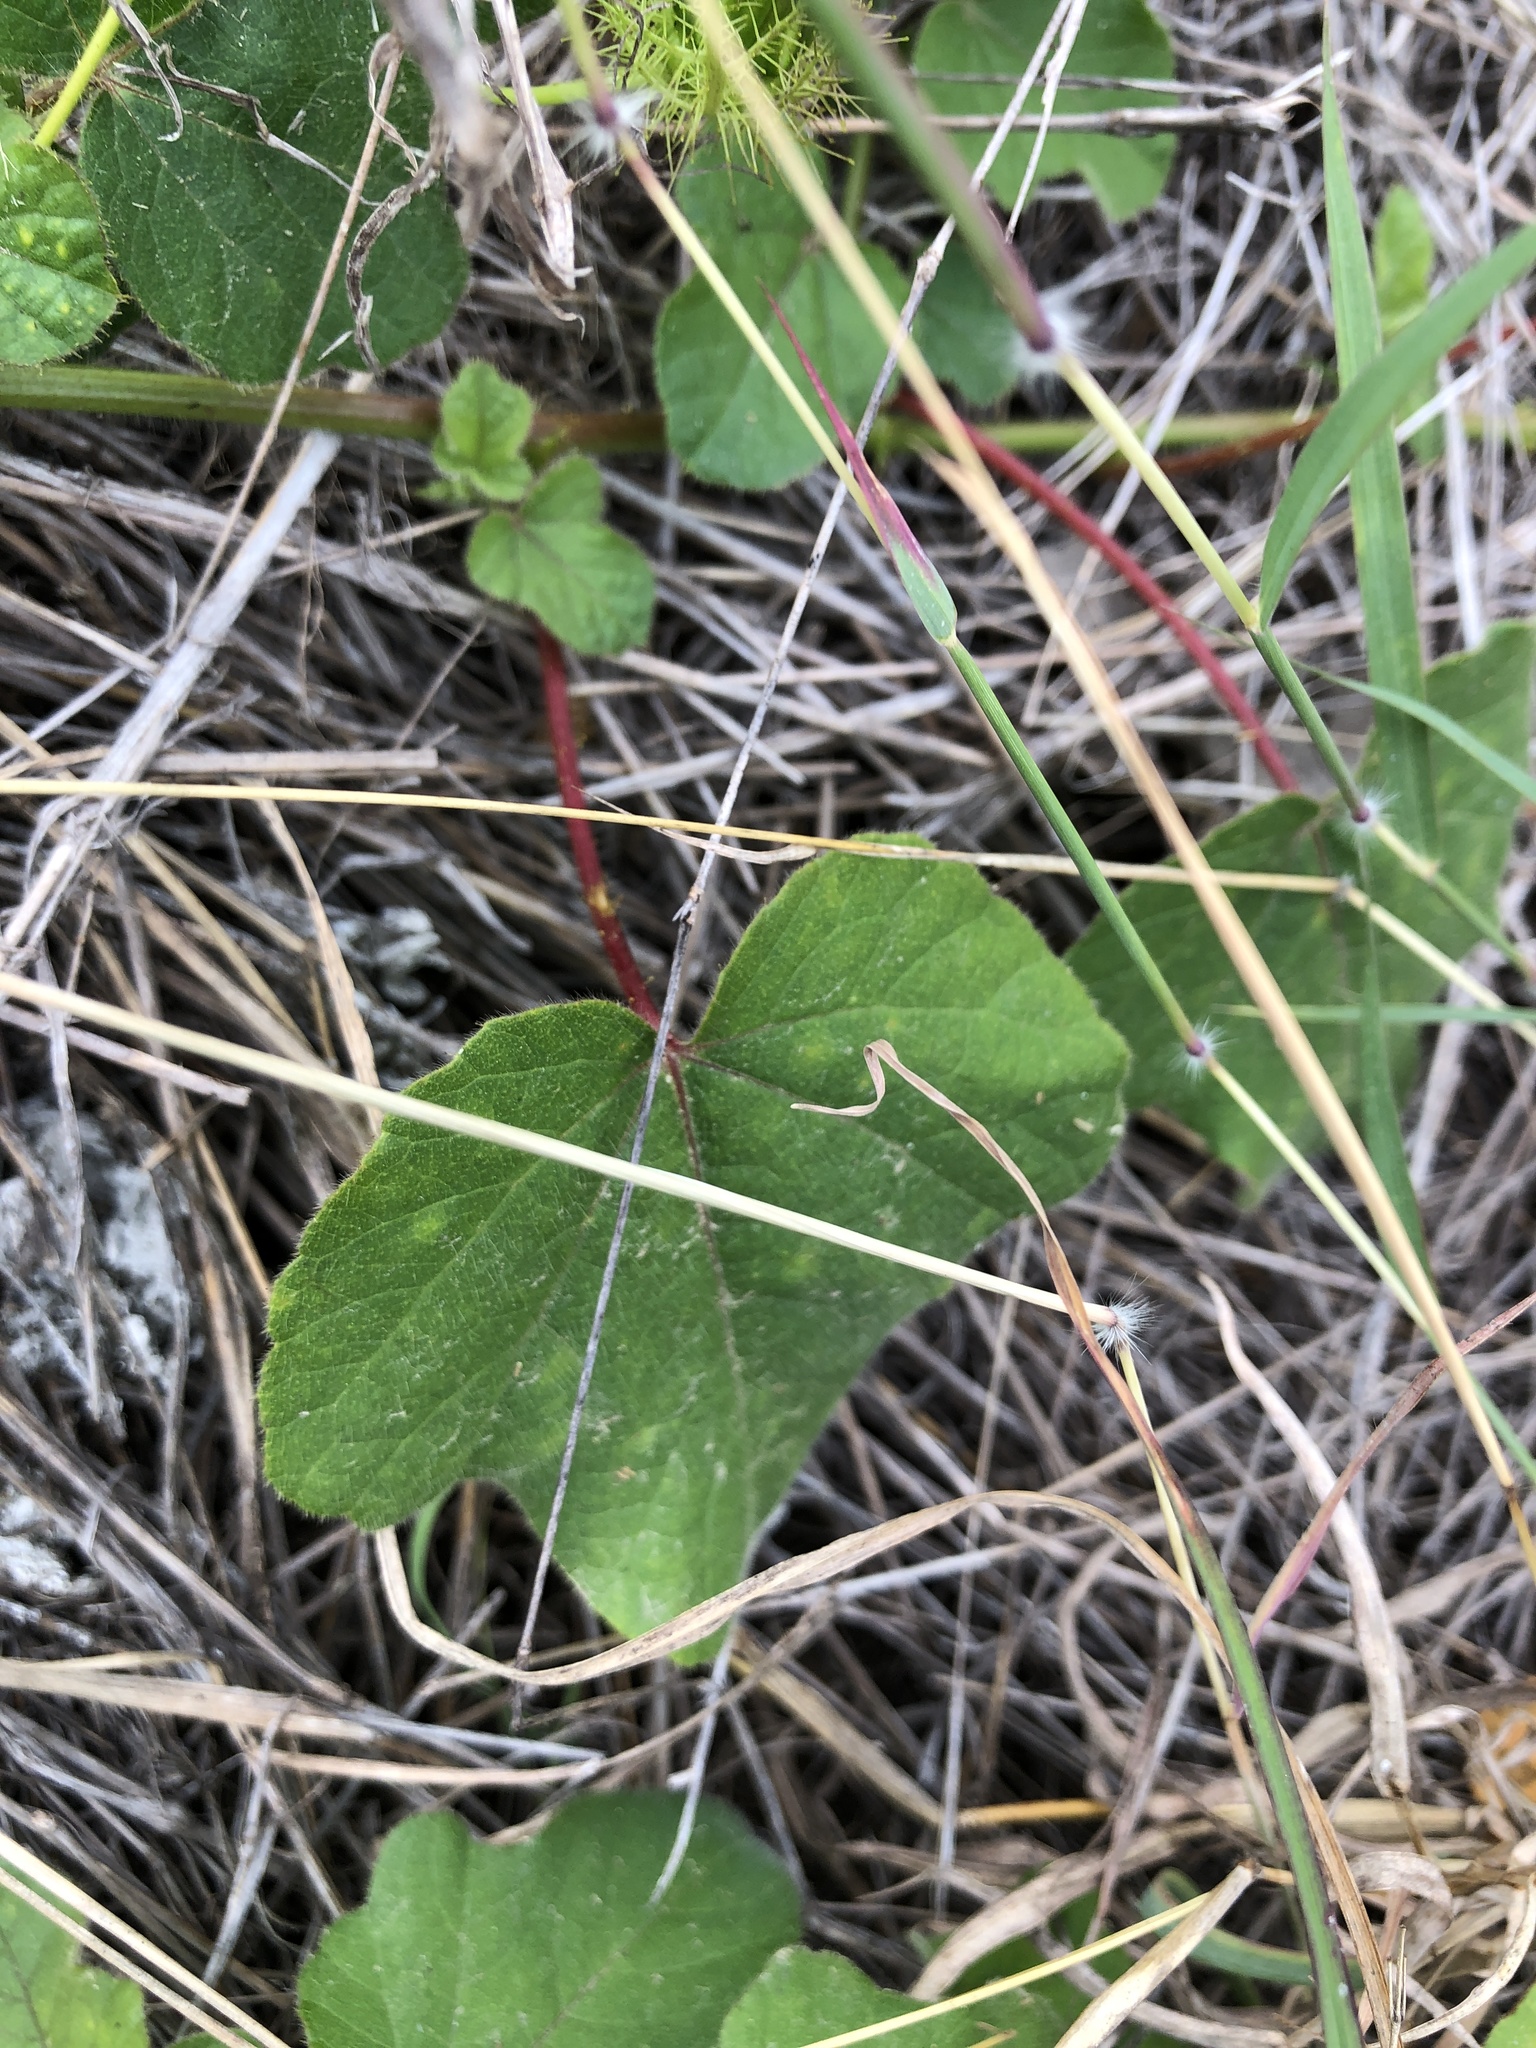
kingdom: Plantae
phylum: Tracheophyta
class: Magnoliopsida
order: Malpighiales
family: Passifloraceae
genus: Passiflora
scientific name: Passiflora foetida
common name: Fetid passionflower
